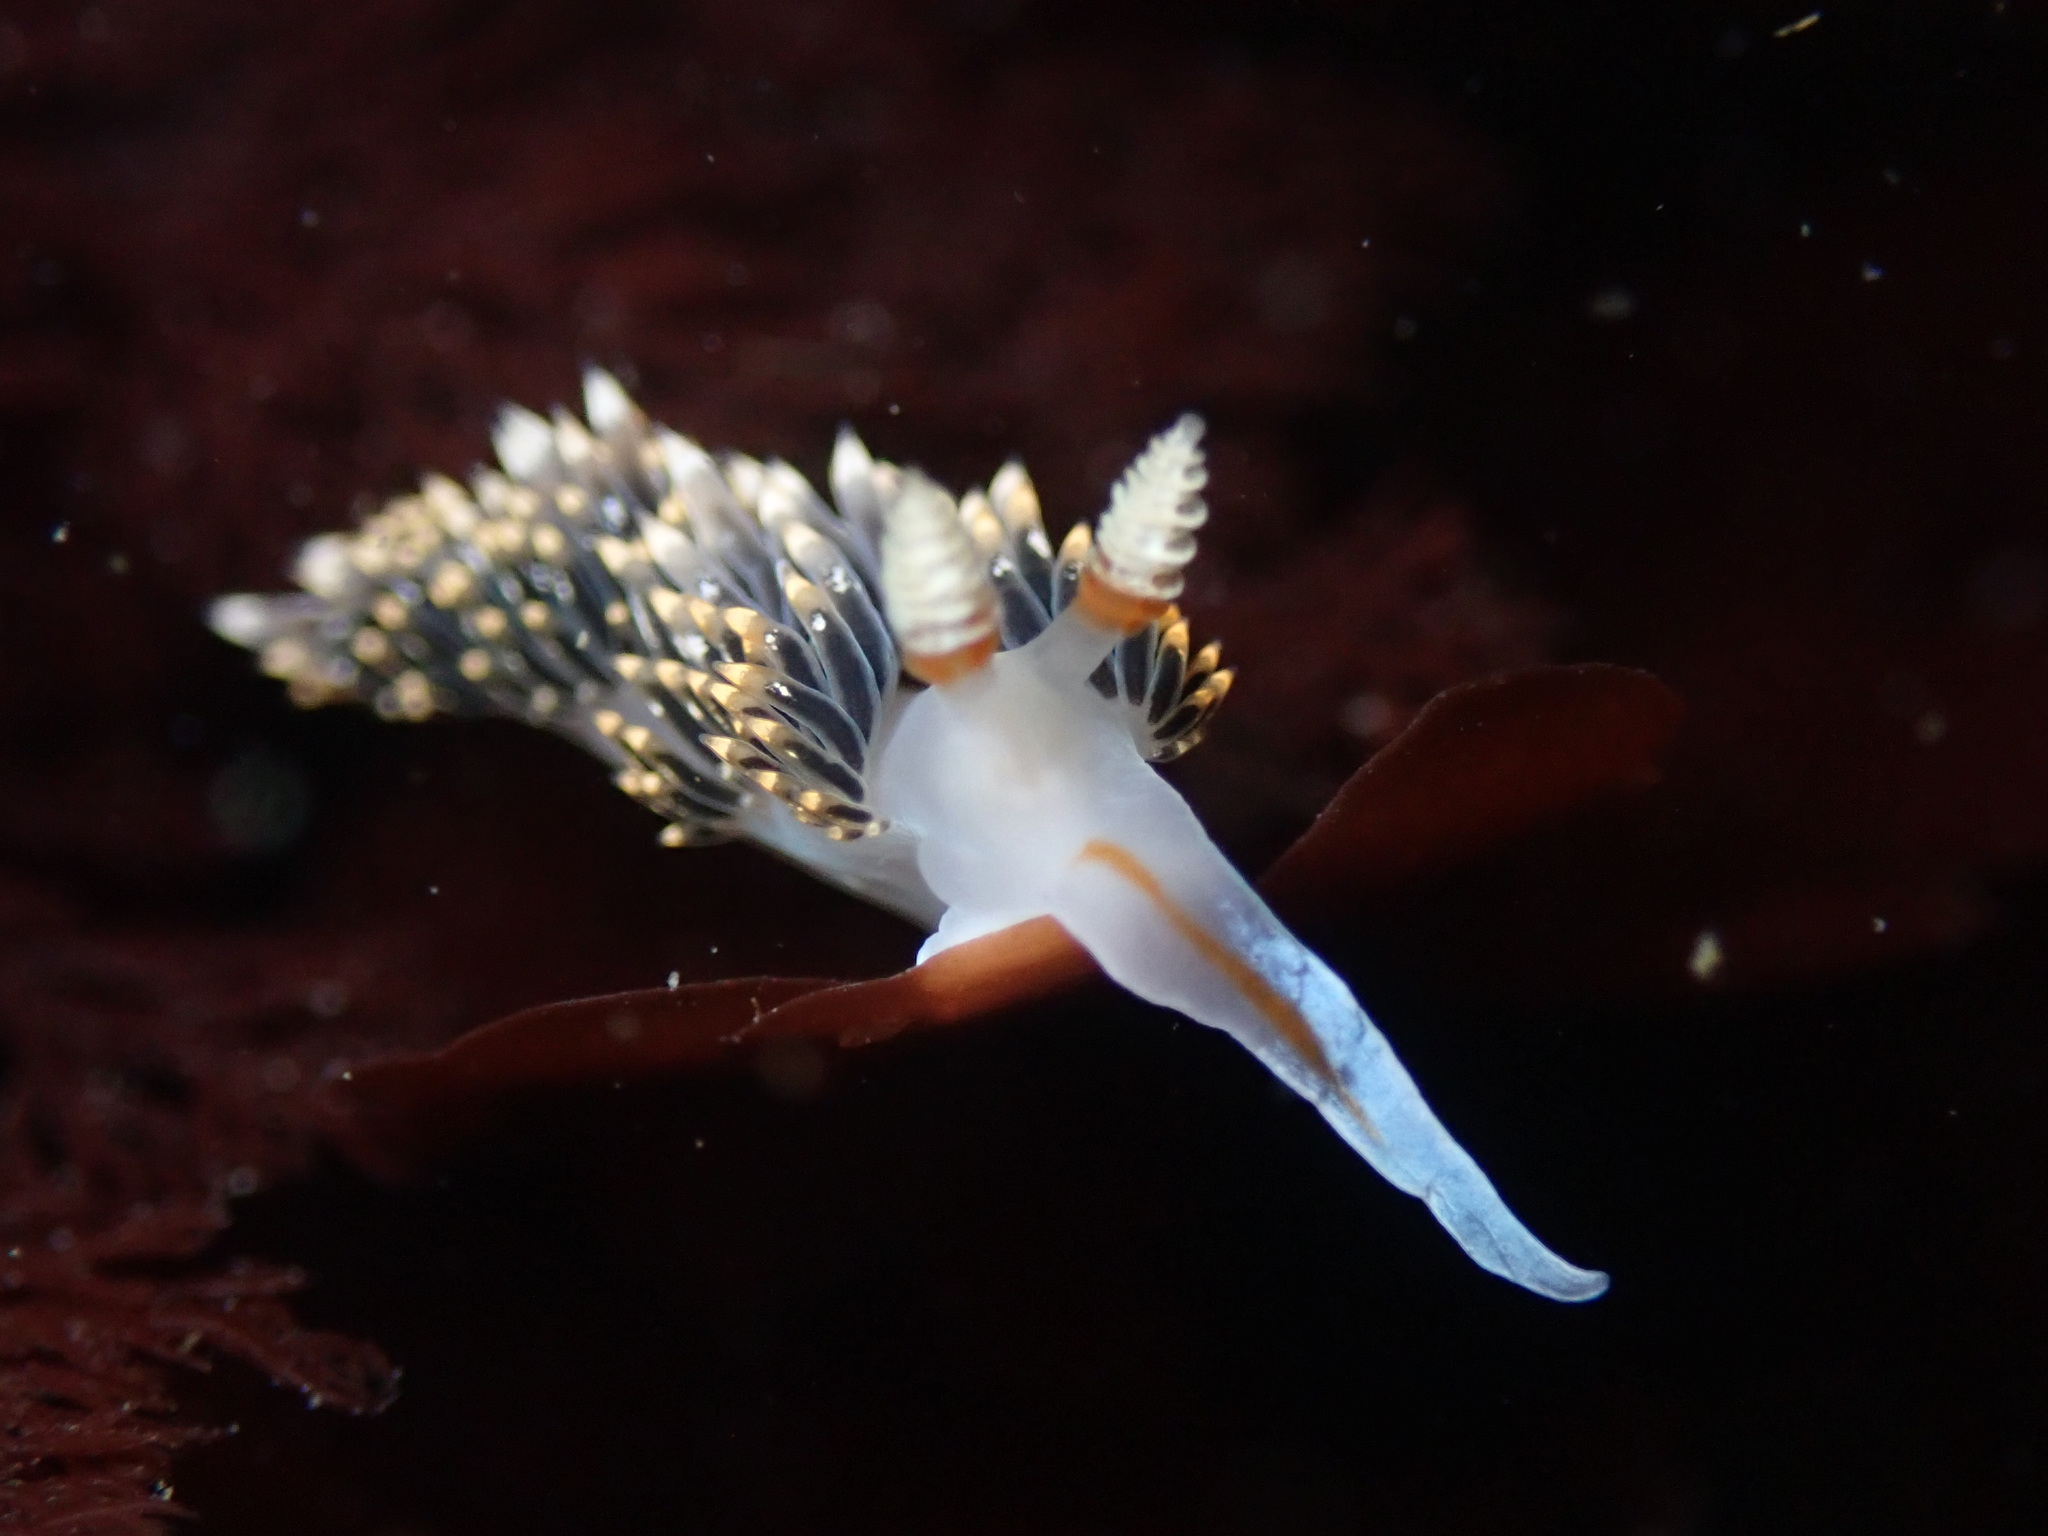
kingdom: Animalia
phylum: Mollusca
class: Gastropoda
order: Nudibranchia
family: Facelinidae
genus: Phidiana
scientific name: Phidiana hiltoni
